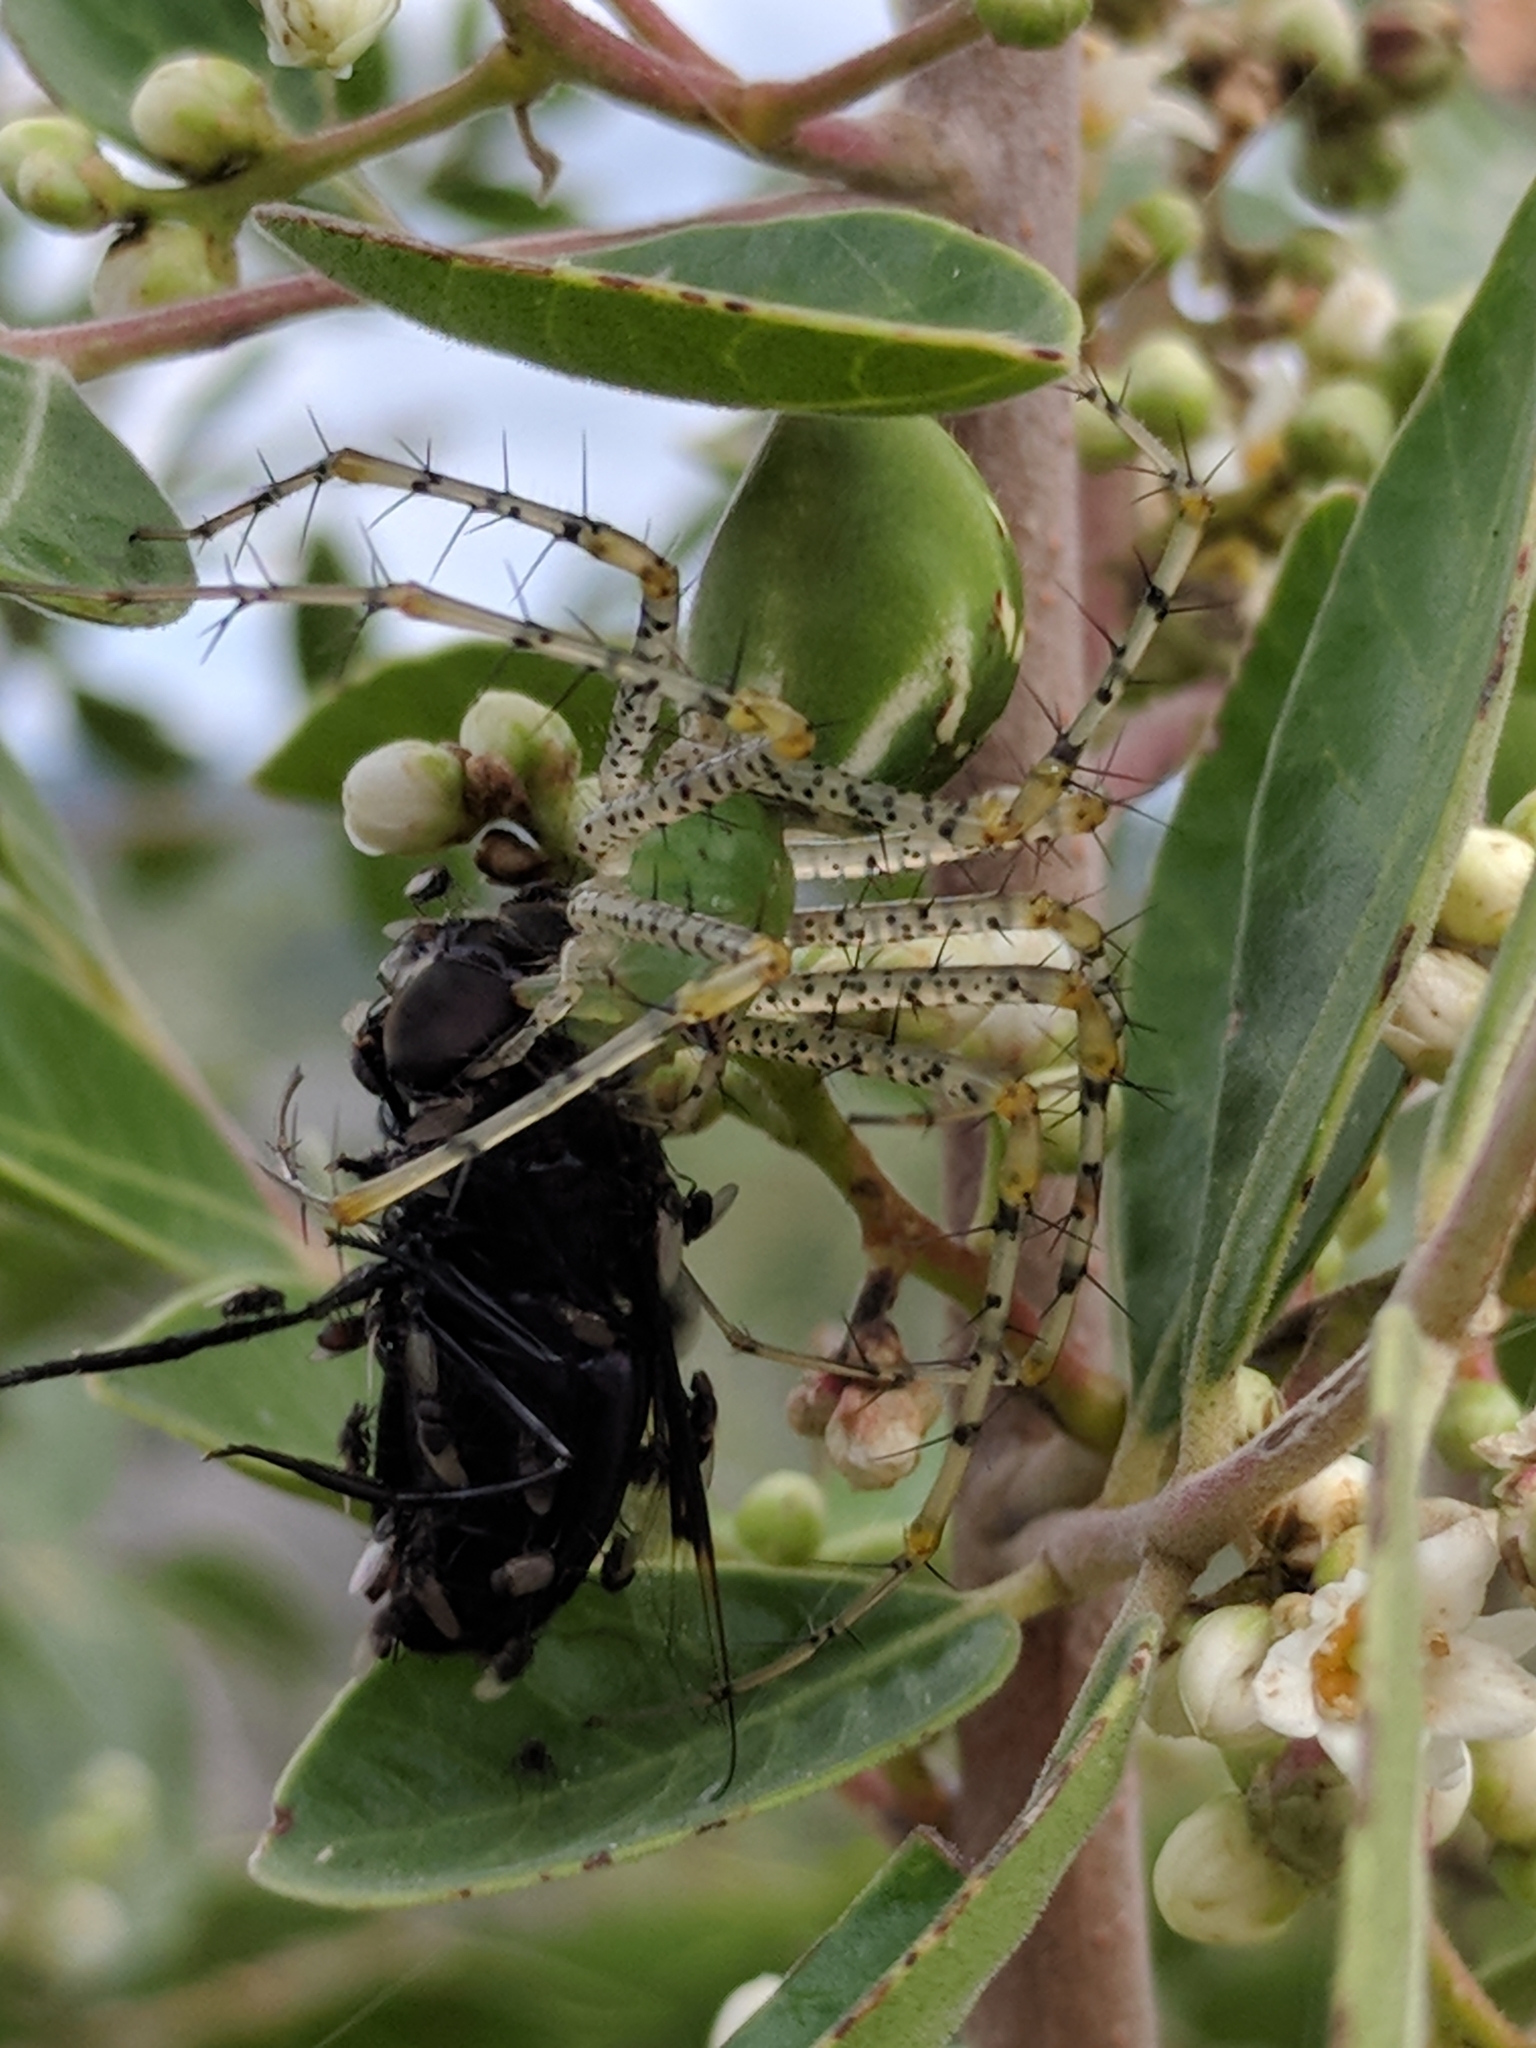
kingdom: Animalia
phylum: Arthropoda
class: Insecta
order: Diptera
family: Syrphidae
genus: Copestylum
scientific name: Copestylum mexicanum
